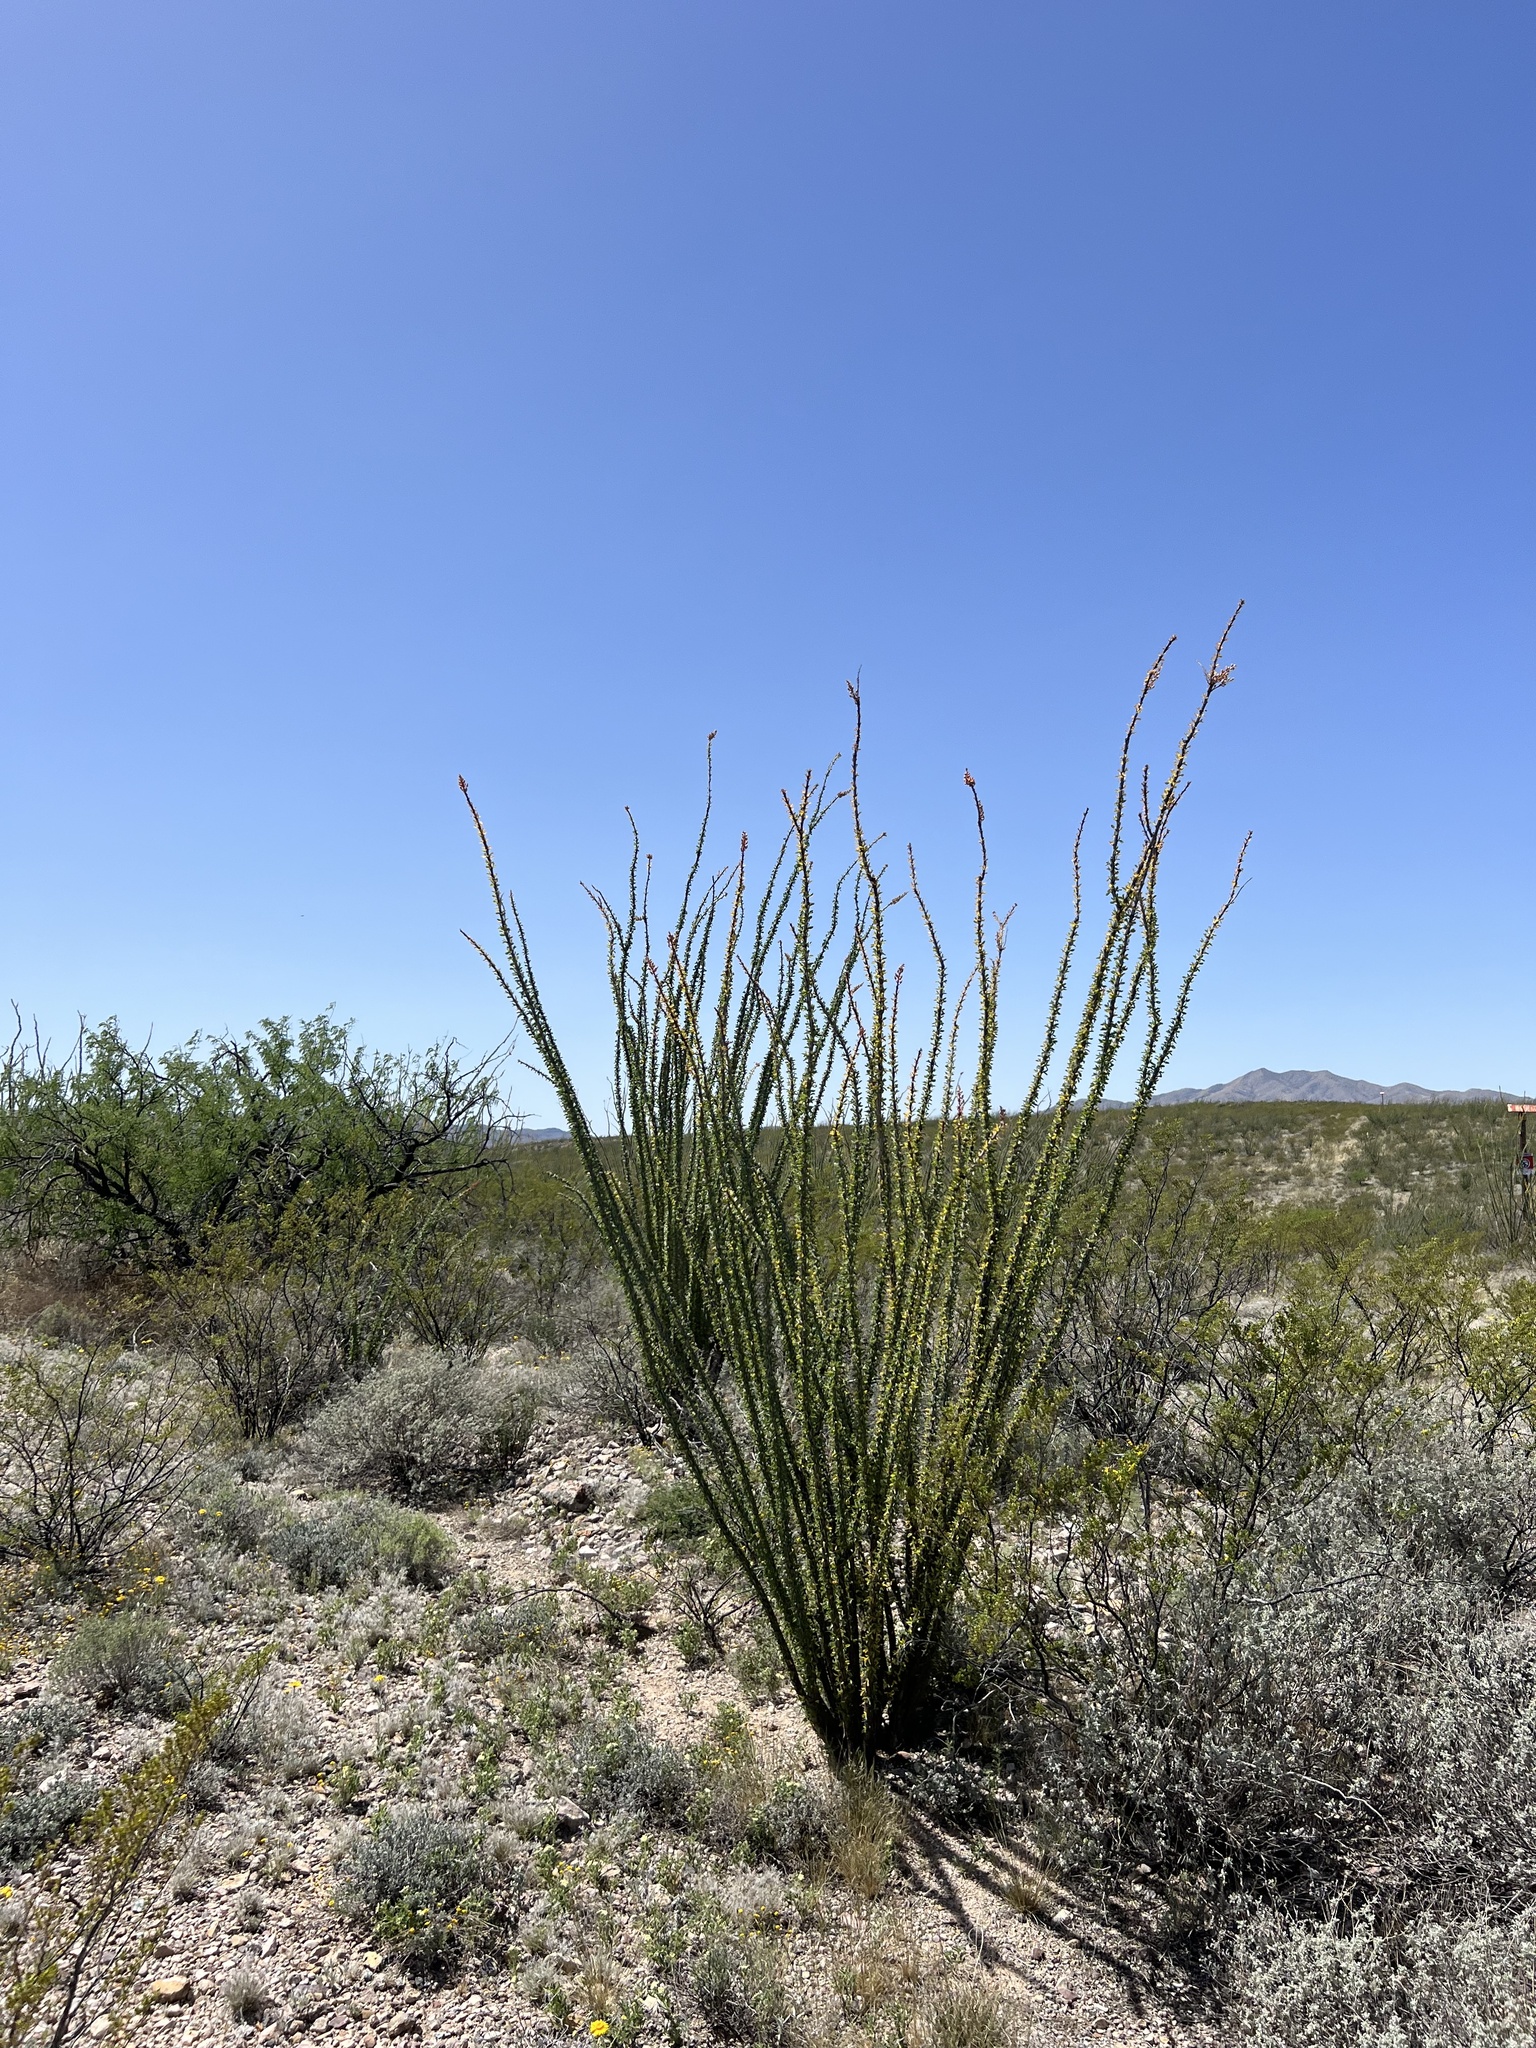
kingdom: Plantae
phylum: Tracheophyta
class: Magnoliopsida
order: Ericales
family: Fouquieriaceae
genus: Fouquieria
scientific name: Fouquieria splendens
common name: Vine-cactus
